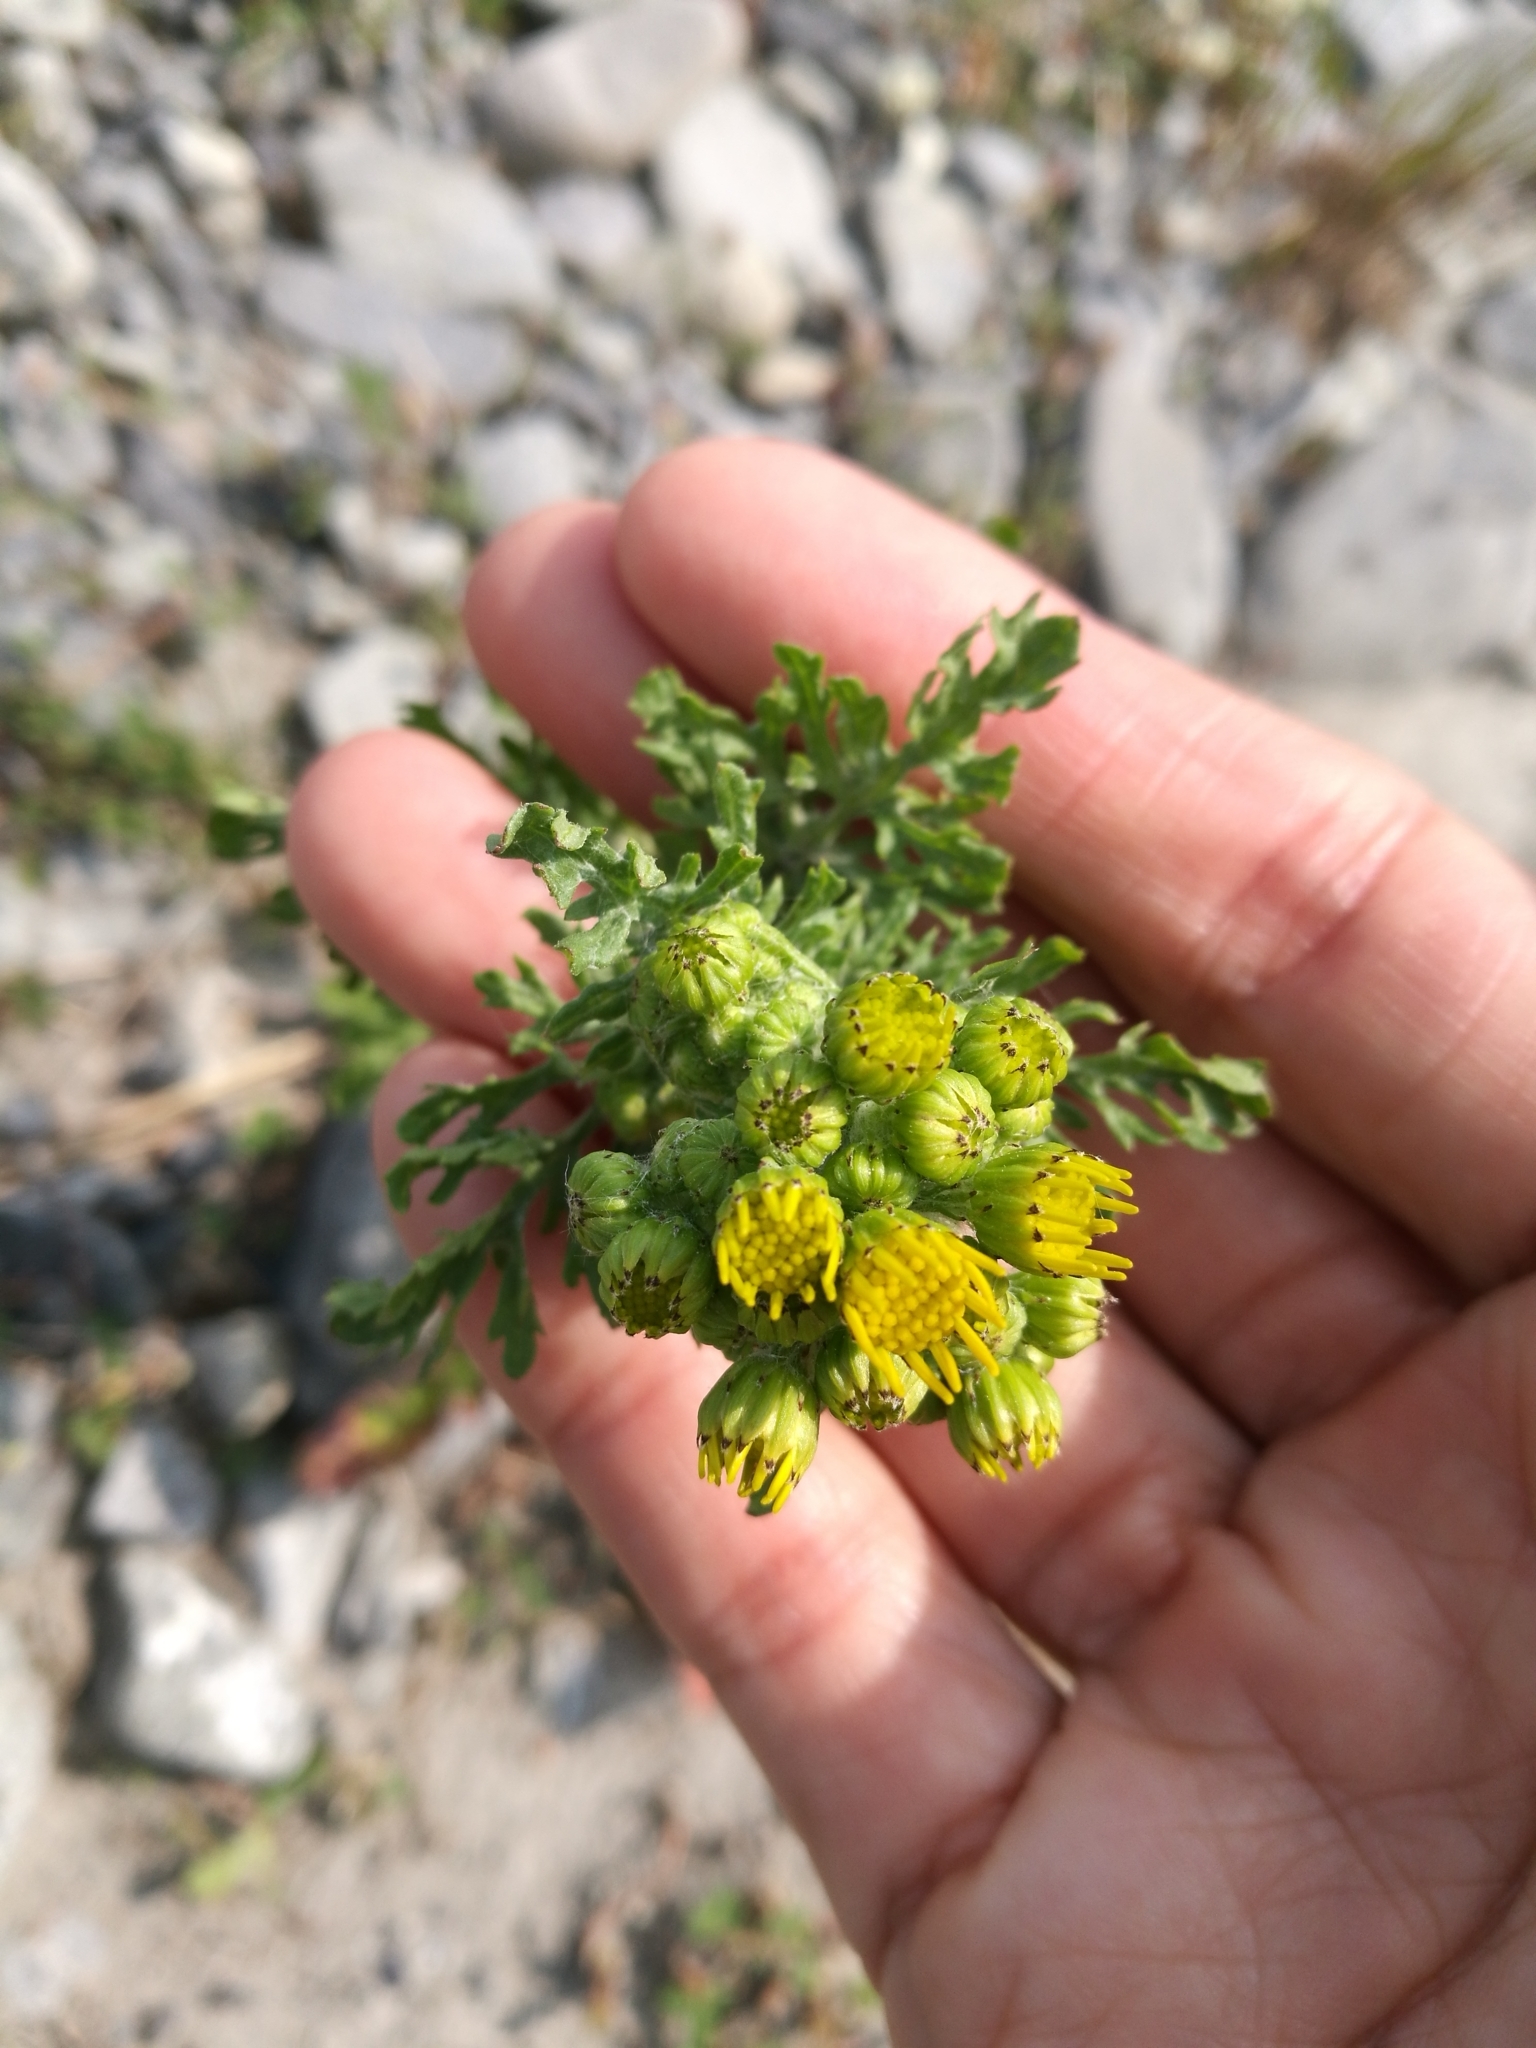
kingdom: Plantae
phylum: Tracheophyta
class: Magnoliopsida
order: Asterales
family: Asteraceae
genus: Jacobaea
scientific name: Jacobaea vulgaris
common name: Stinking willie
